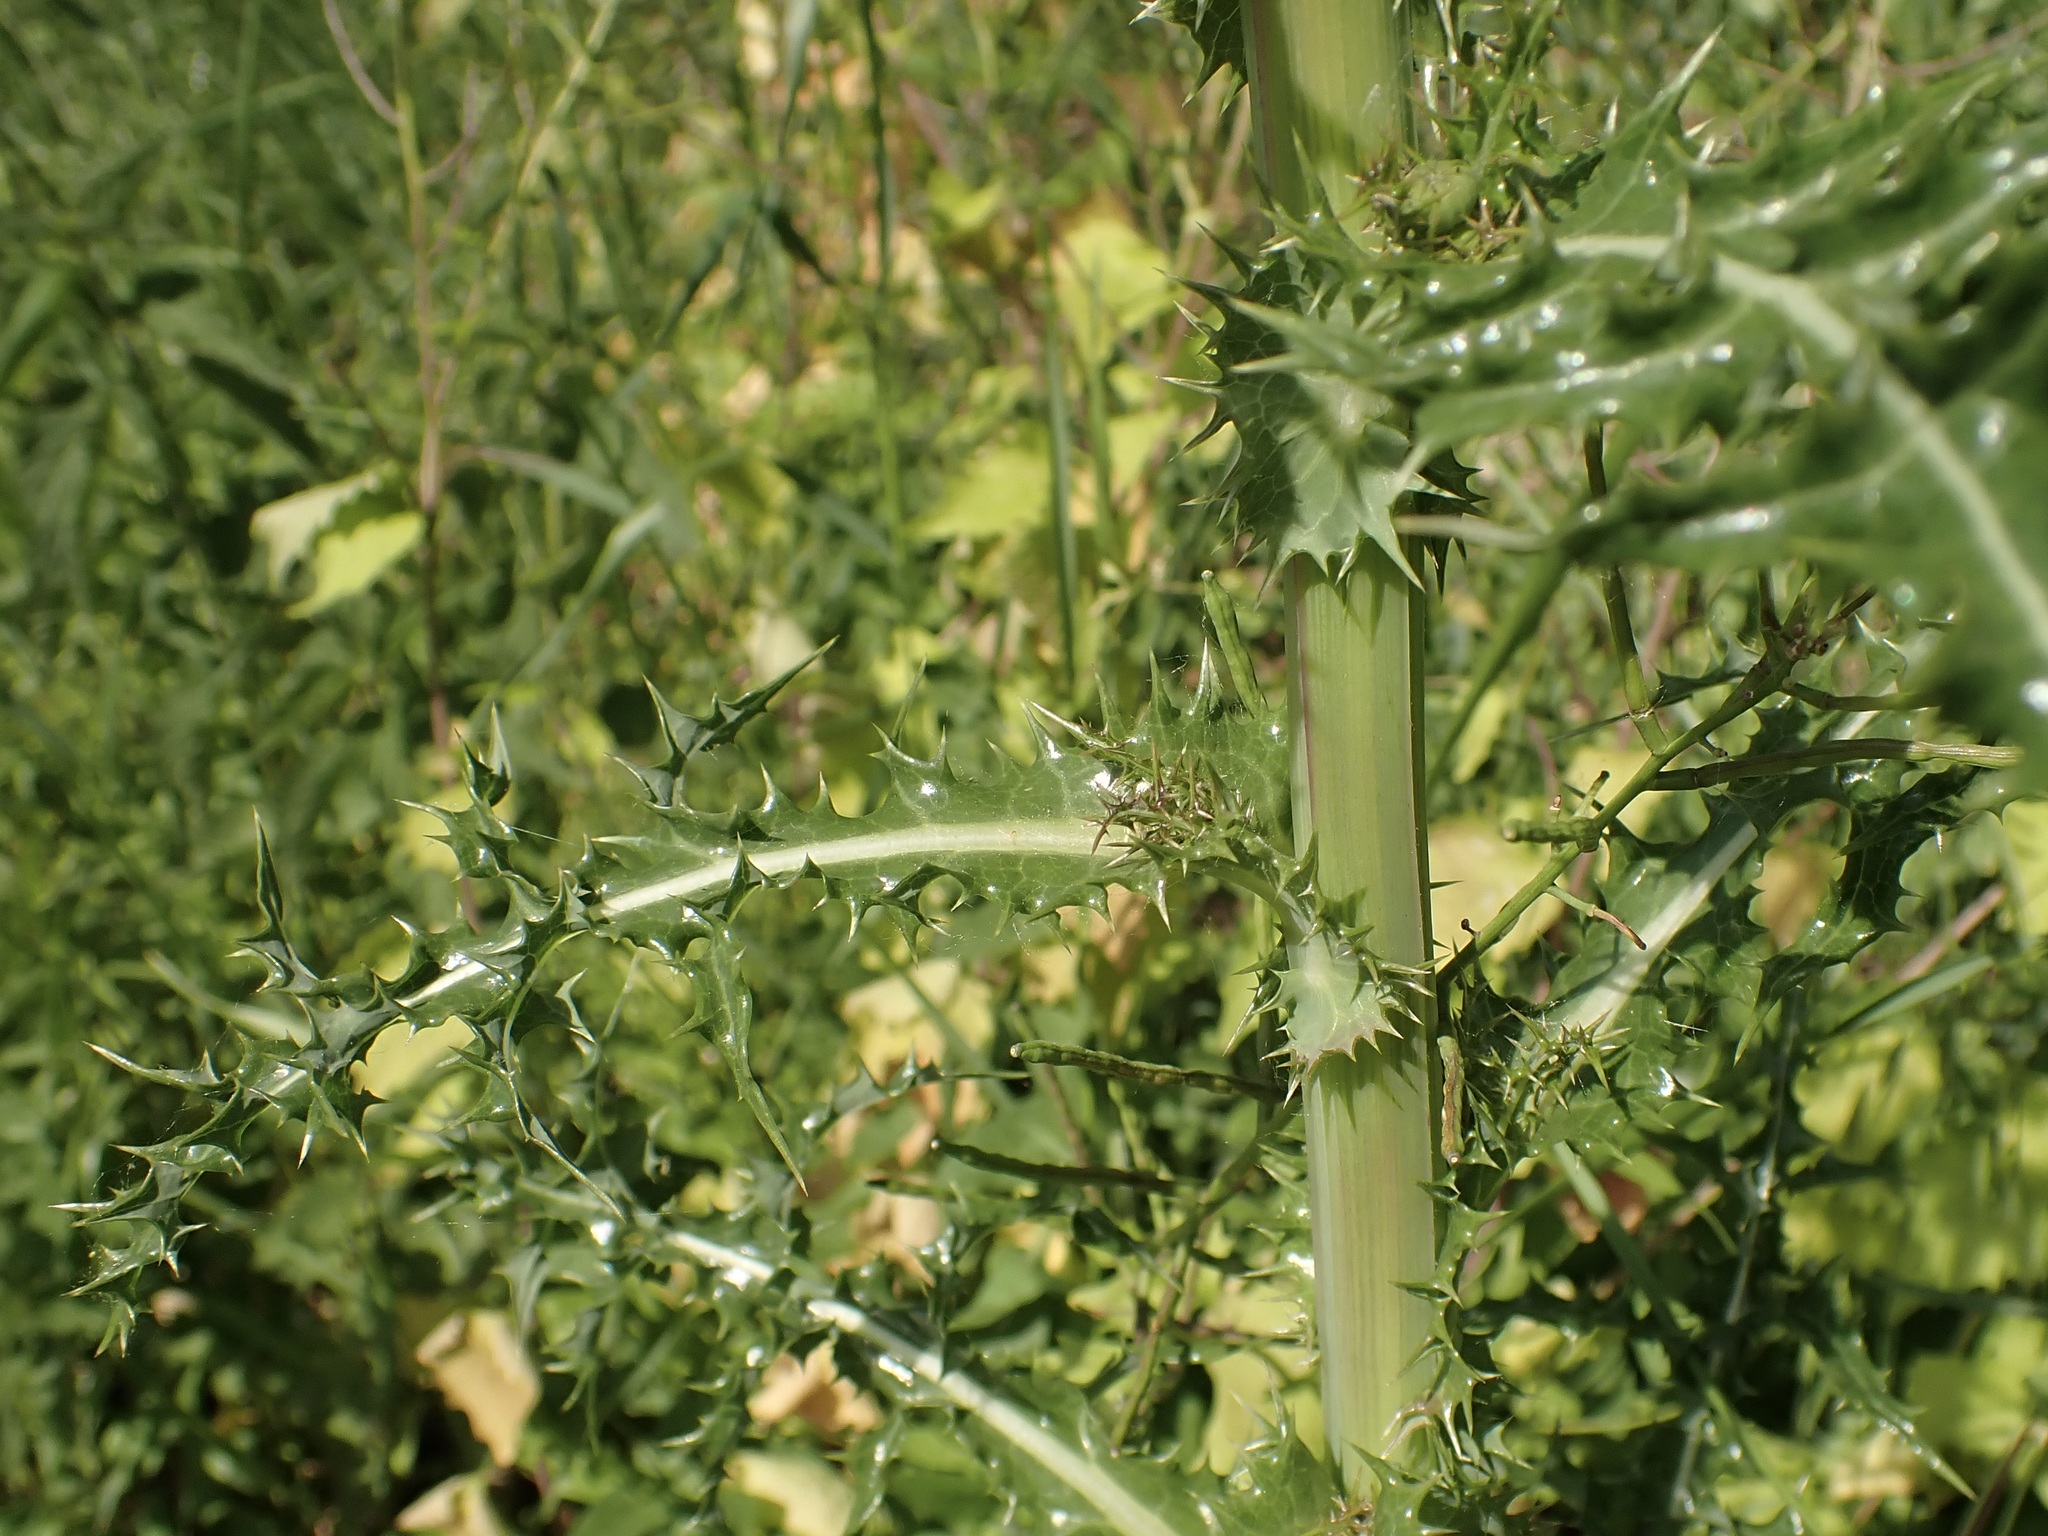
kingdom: Plantae
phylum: Tracheophyta
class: Magnoliopsida
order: Asterales
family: Asteraceae
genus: Sonchus
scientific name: Sonchus asper
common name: Prickly sow-thistle
